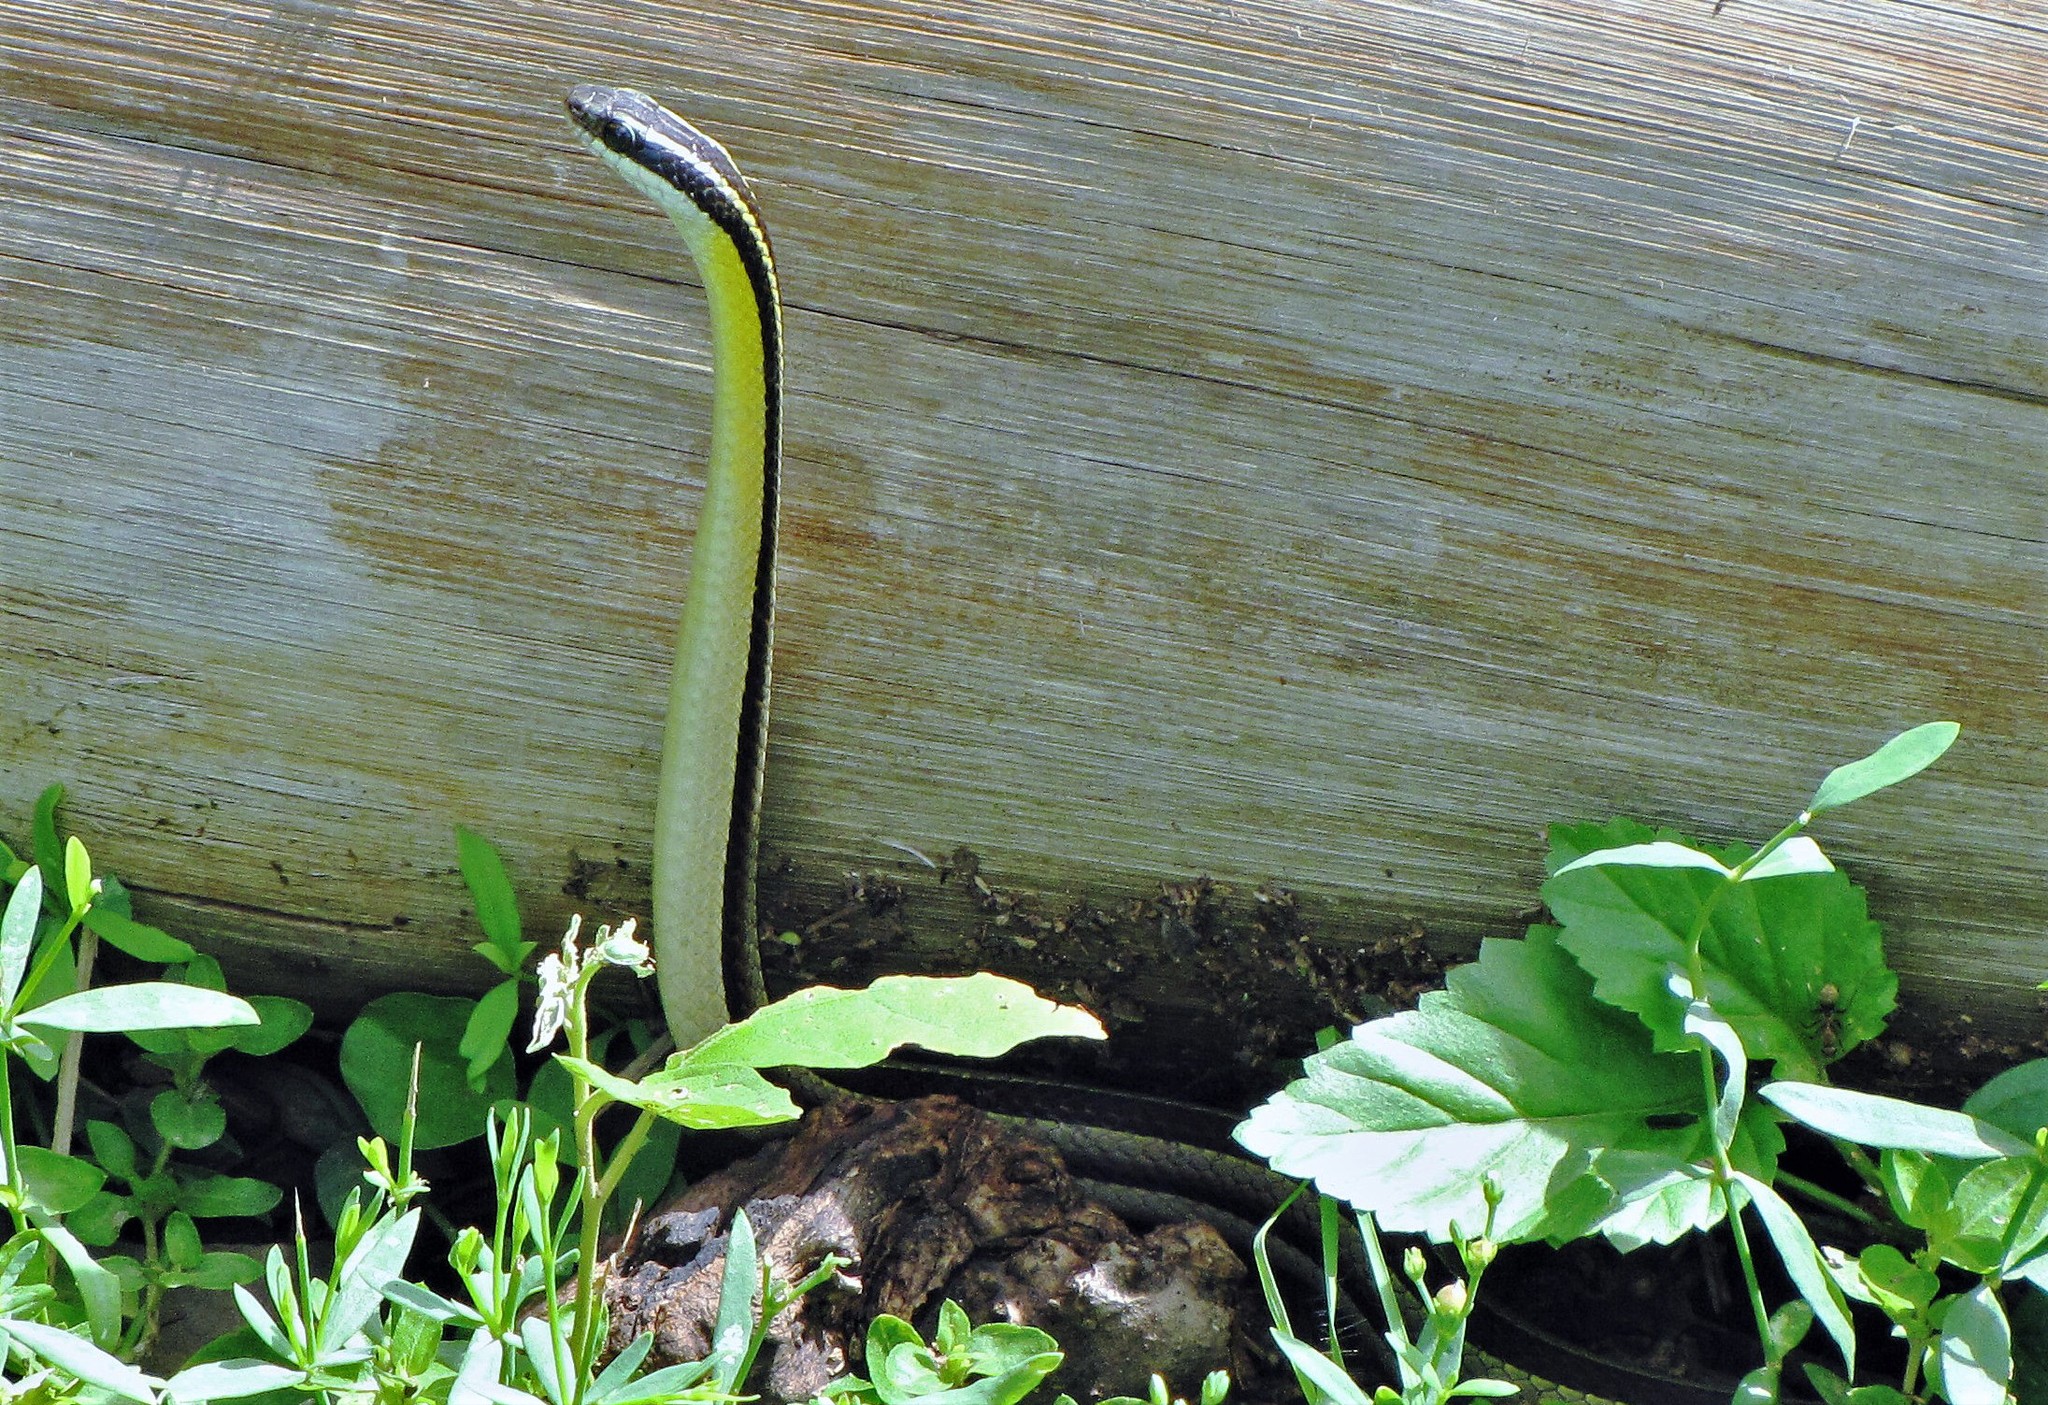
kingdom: Animalia
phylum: Chordata
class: Squamata
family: Colubridae
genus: Lygophis
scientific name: Lygophis dilepis
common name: Lema's ground snake
